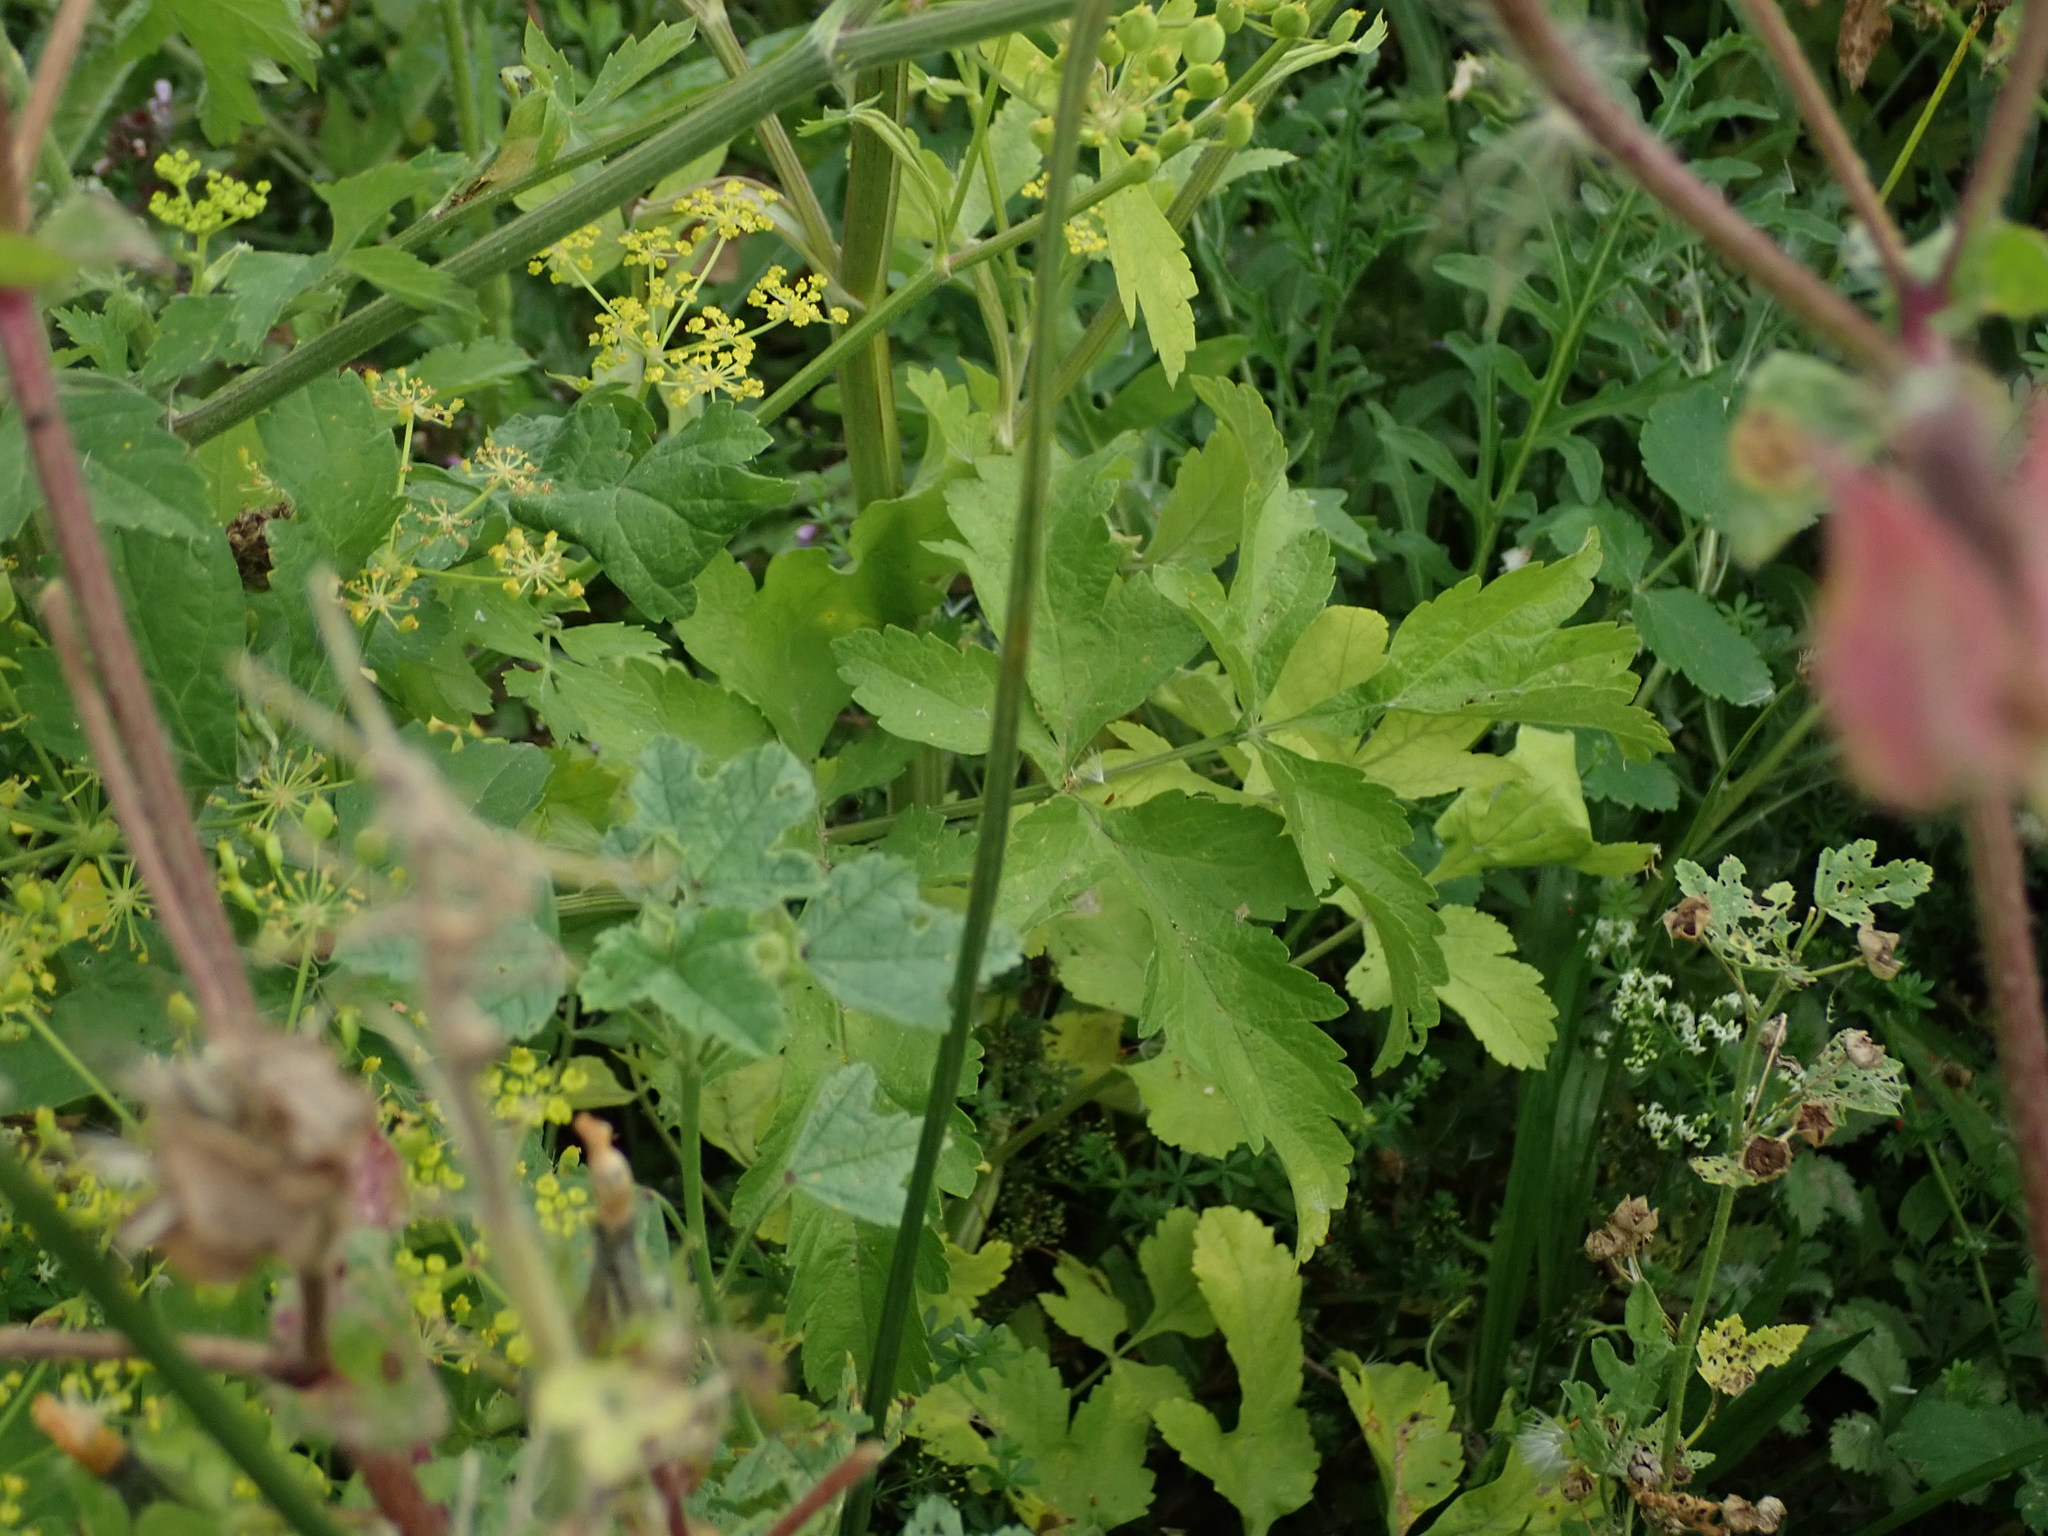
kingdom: Plantae
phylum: Tracheophyta
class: Magnoliopsida
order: Apiales
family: Apiaceae
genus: Pastinaca
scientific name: Pastinaca sativa
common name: Wild parsnip
